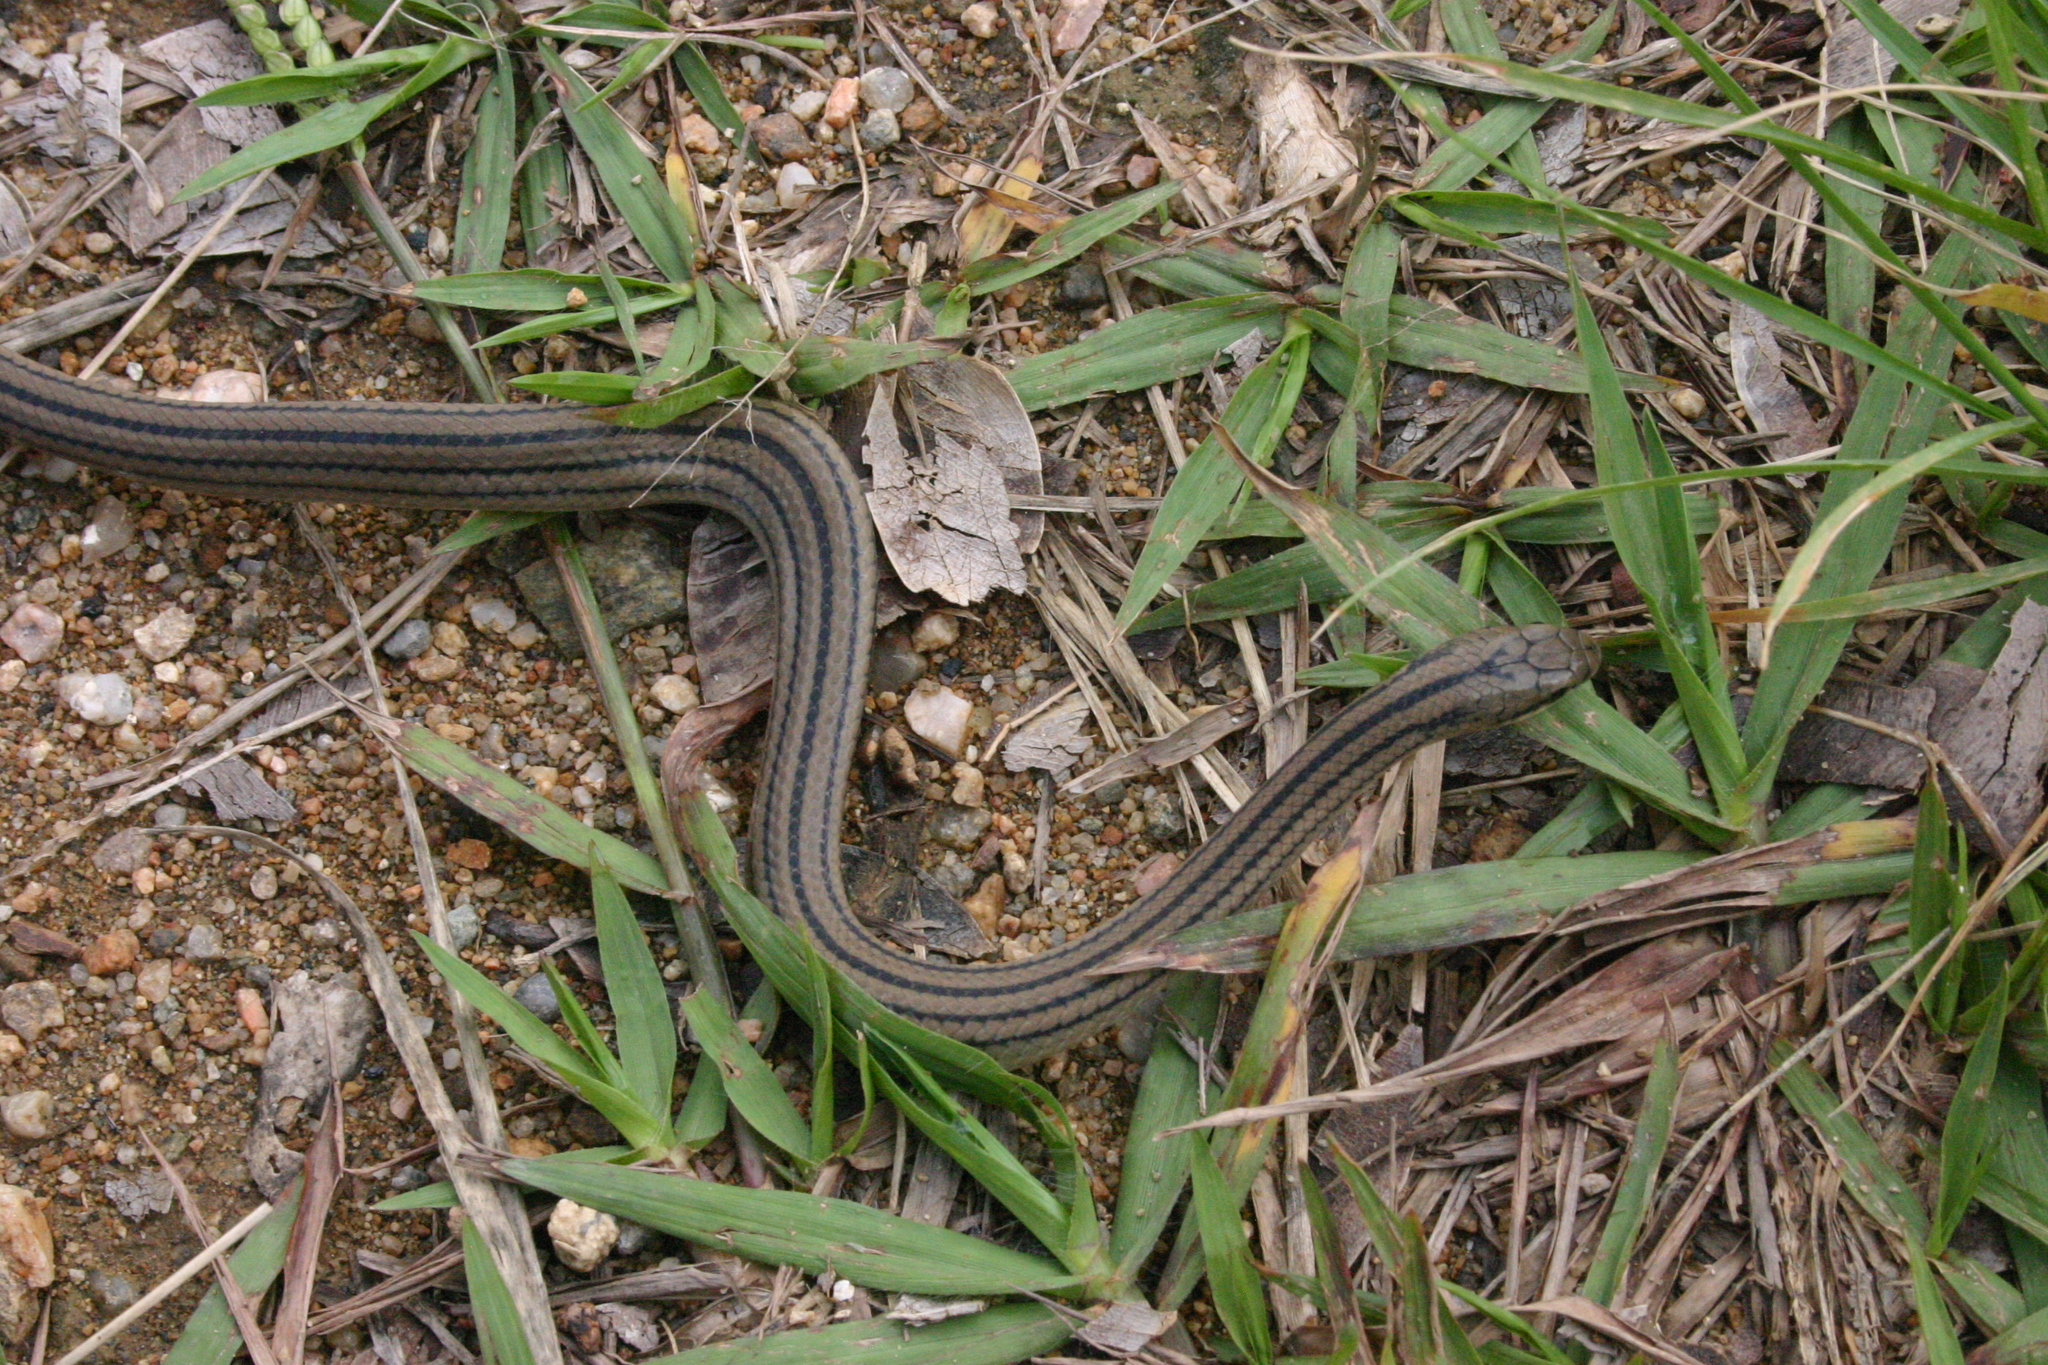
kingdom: Animalia
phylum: Chordata
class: Squamata
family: Colubridae
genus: Stenorrhina
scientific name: Stenorrhina freminvillei
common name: Blood snake
